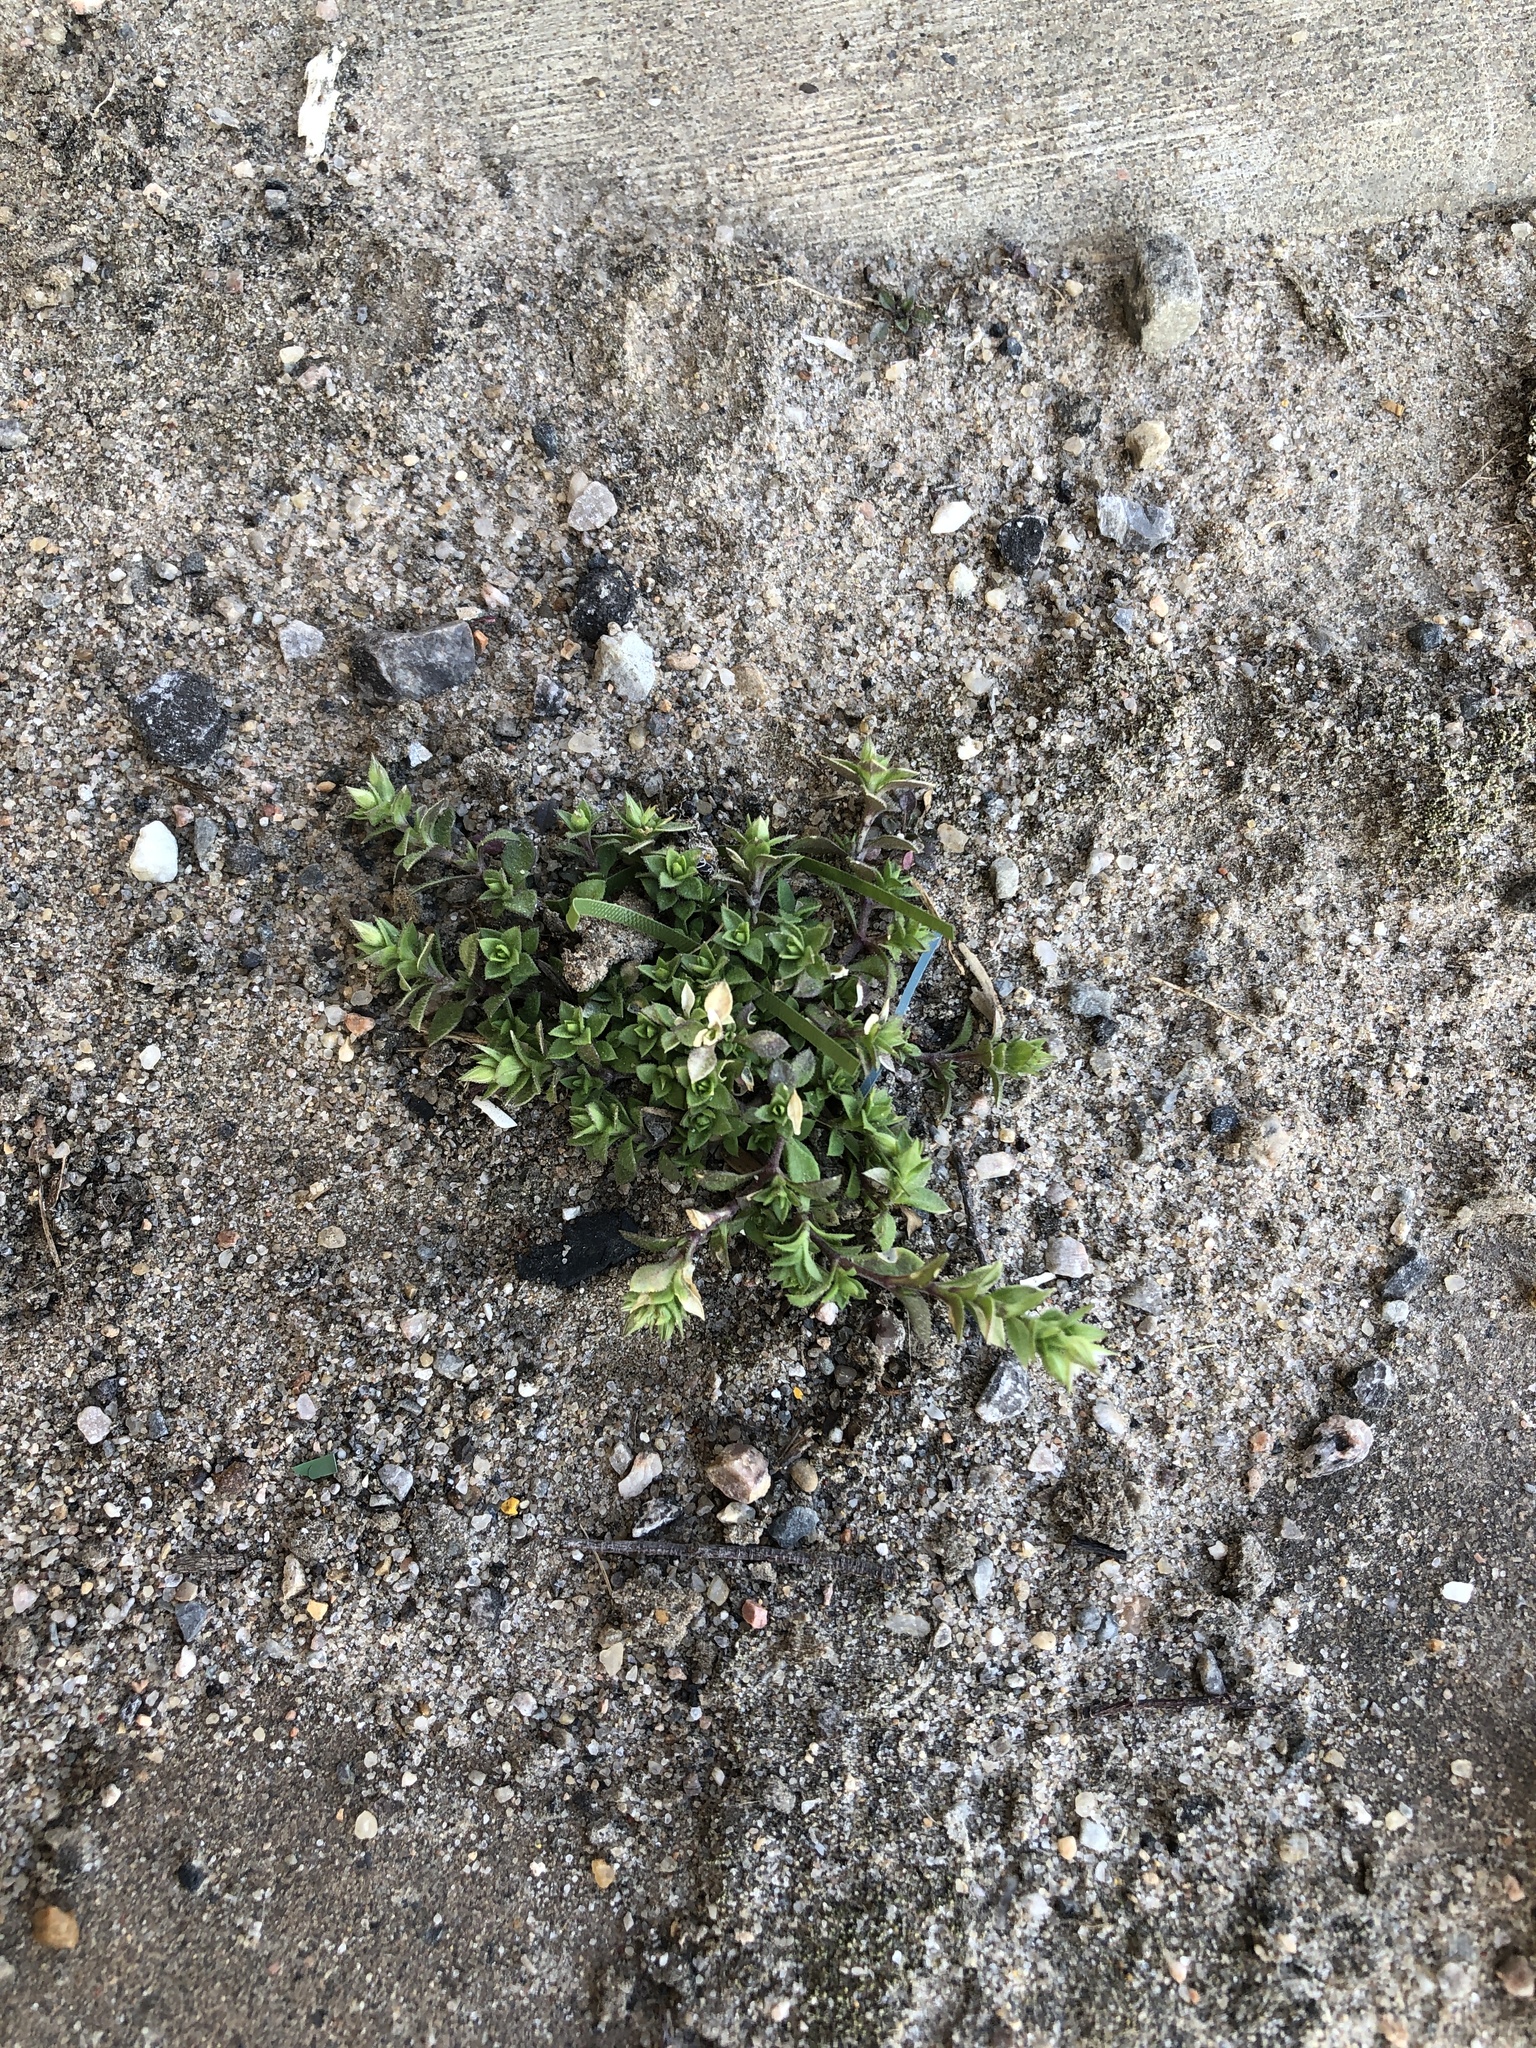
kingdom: Plantae
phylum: Tracheophyta
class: Magnoliopsida
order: Caryophyllales
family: Caryophyllaceae
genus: Arenaria
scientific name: Arenaria serpyllifolia
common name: Thyme-leaved sandwort
